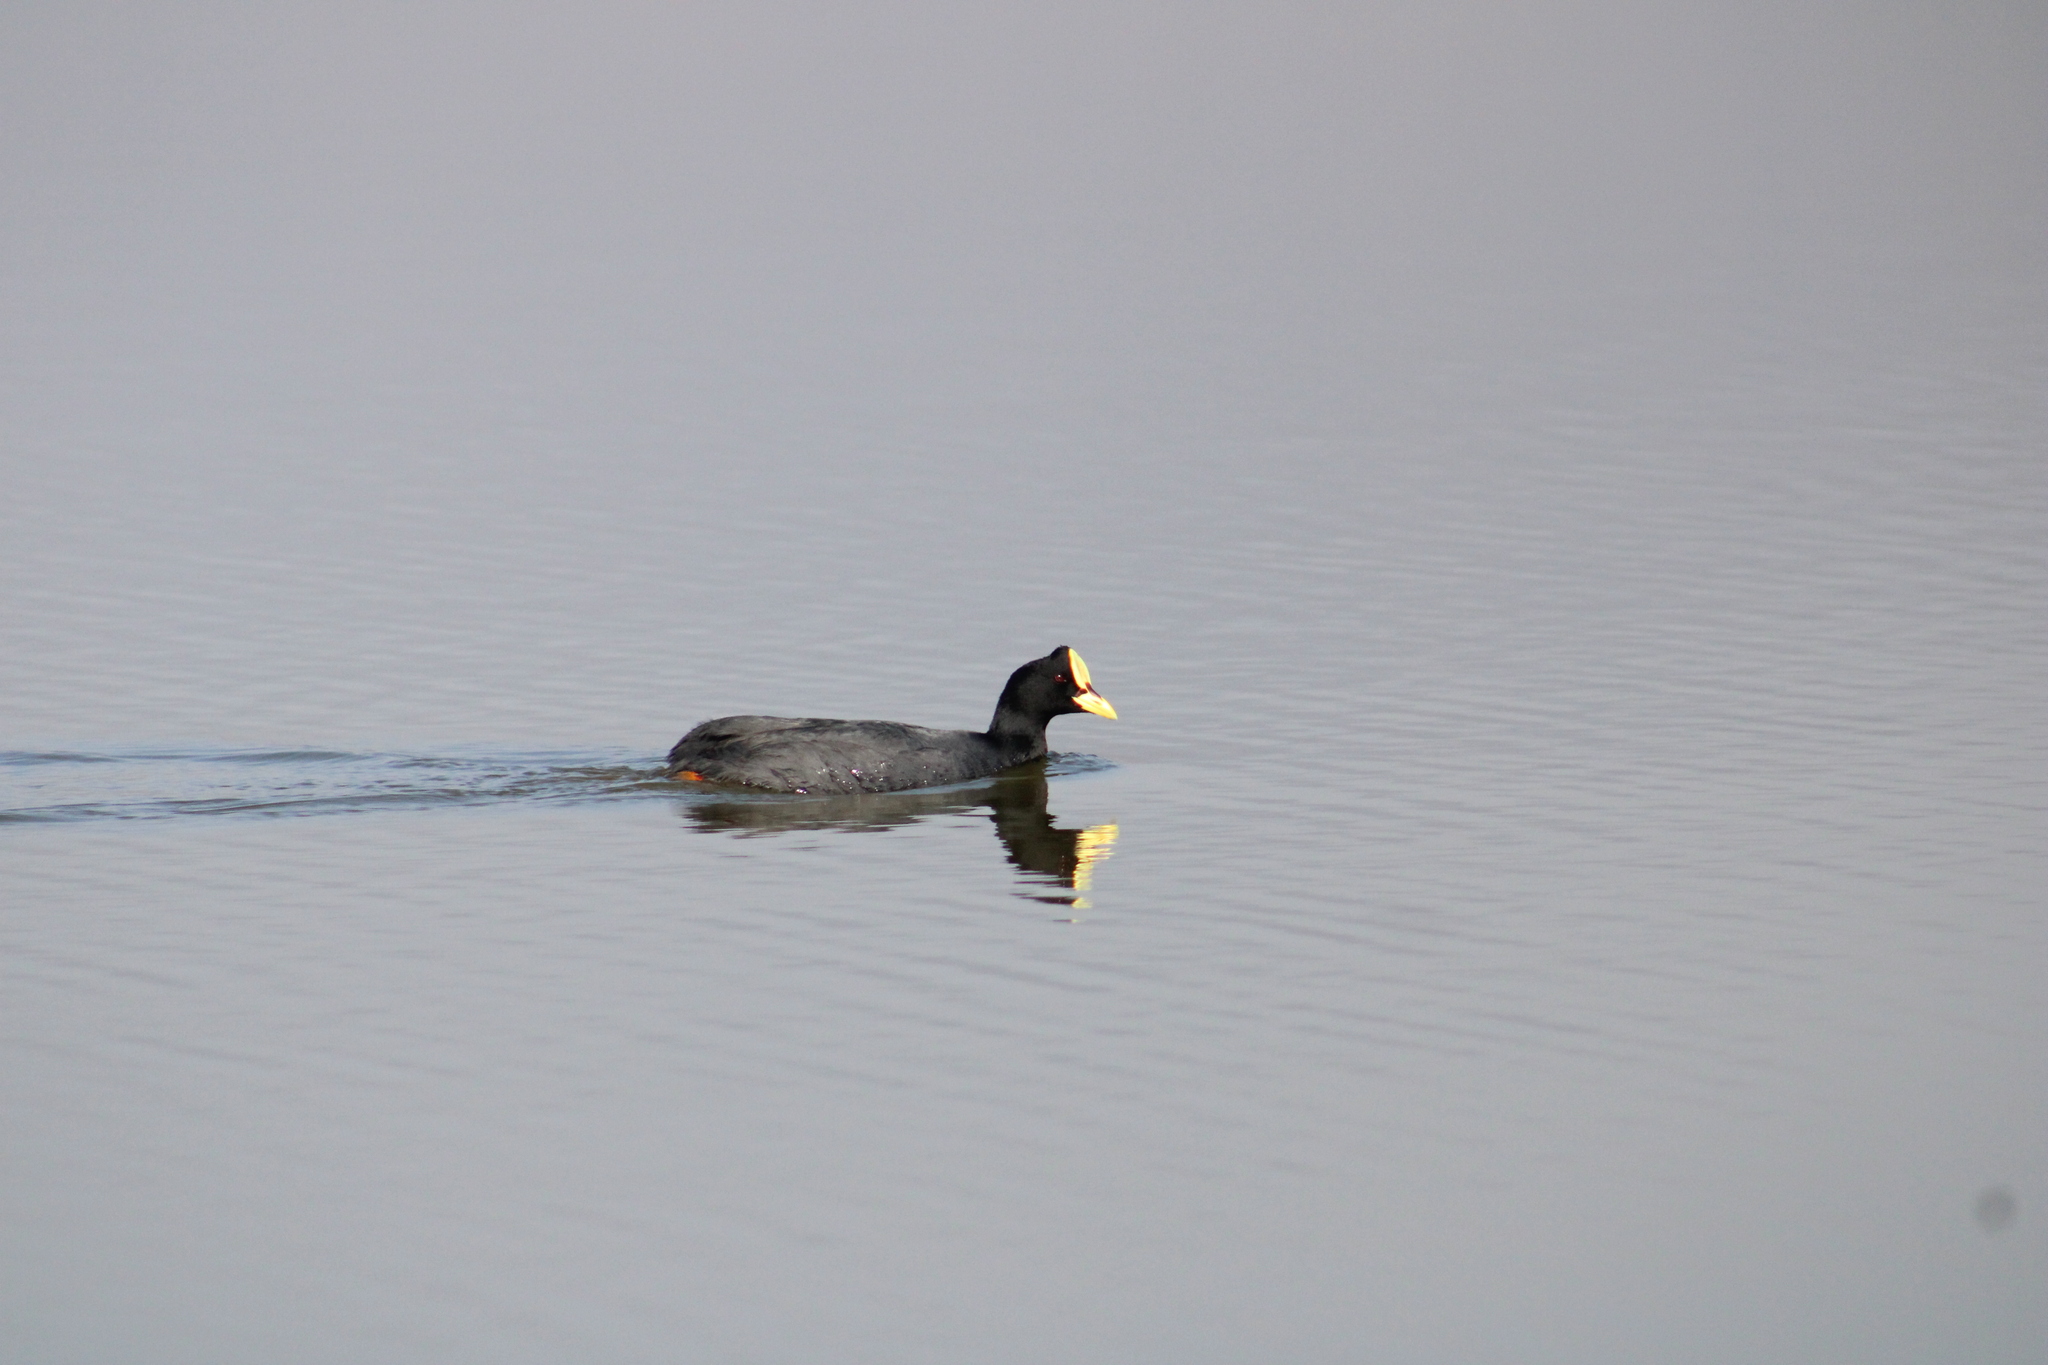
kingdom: Animalia
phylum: Chordata
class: Aves
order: Gruiformes
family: Rallidae
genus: Fulica
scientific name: Fulica armillata
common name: Red-gartered coot
